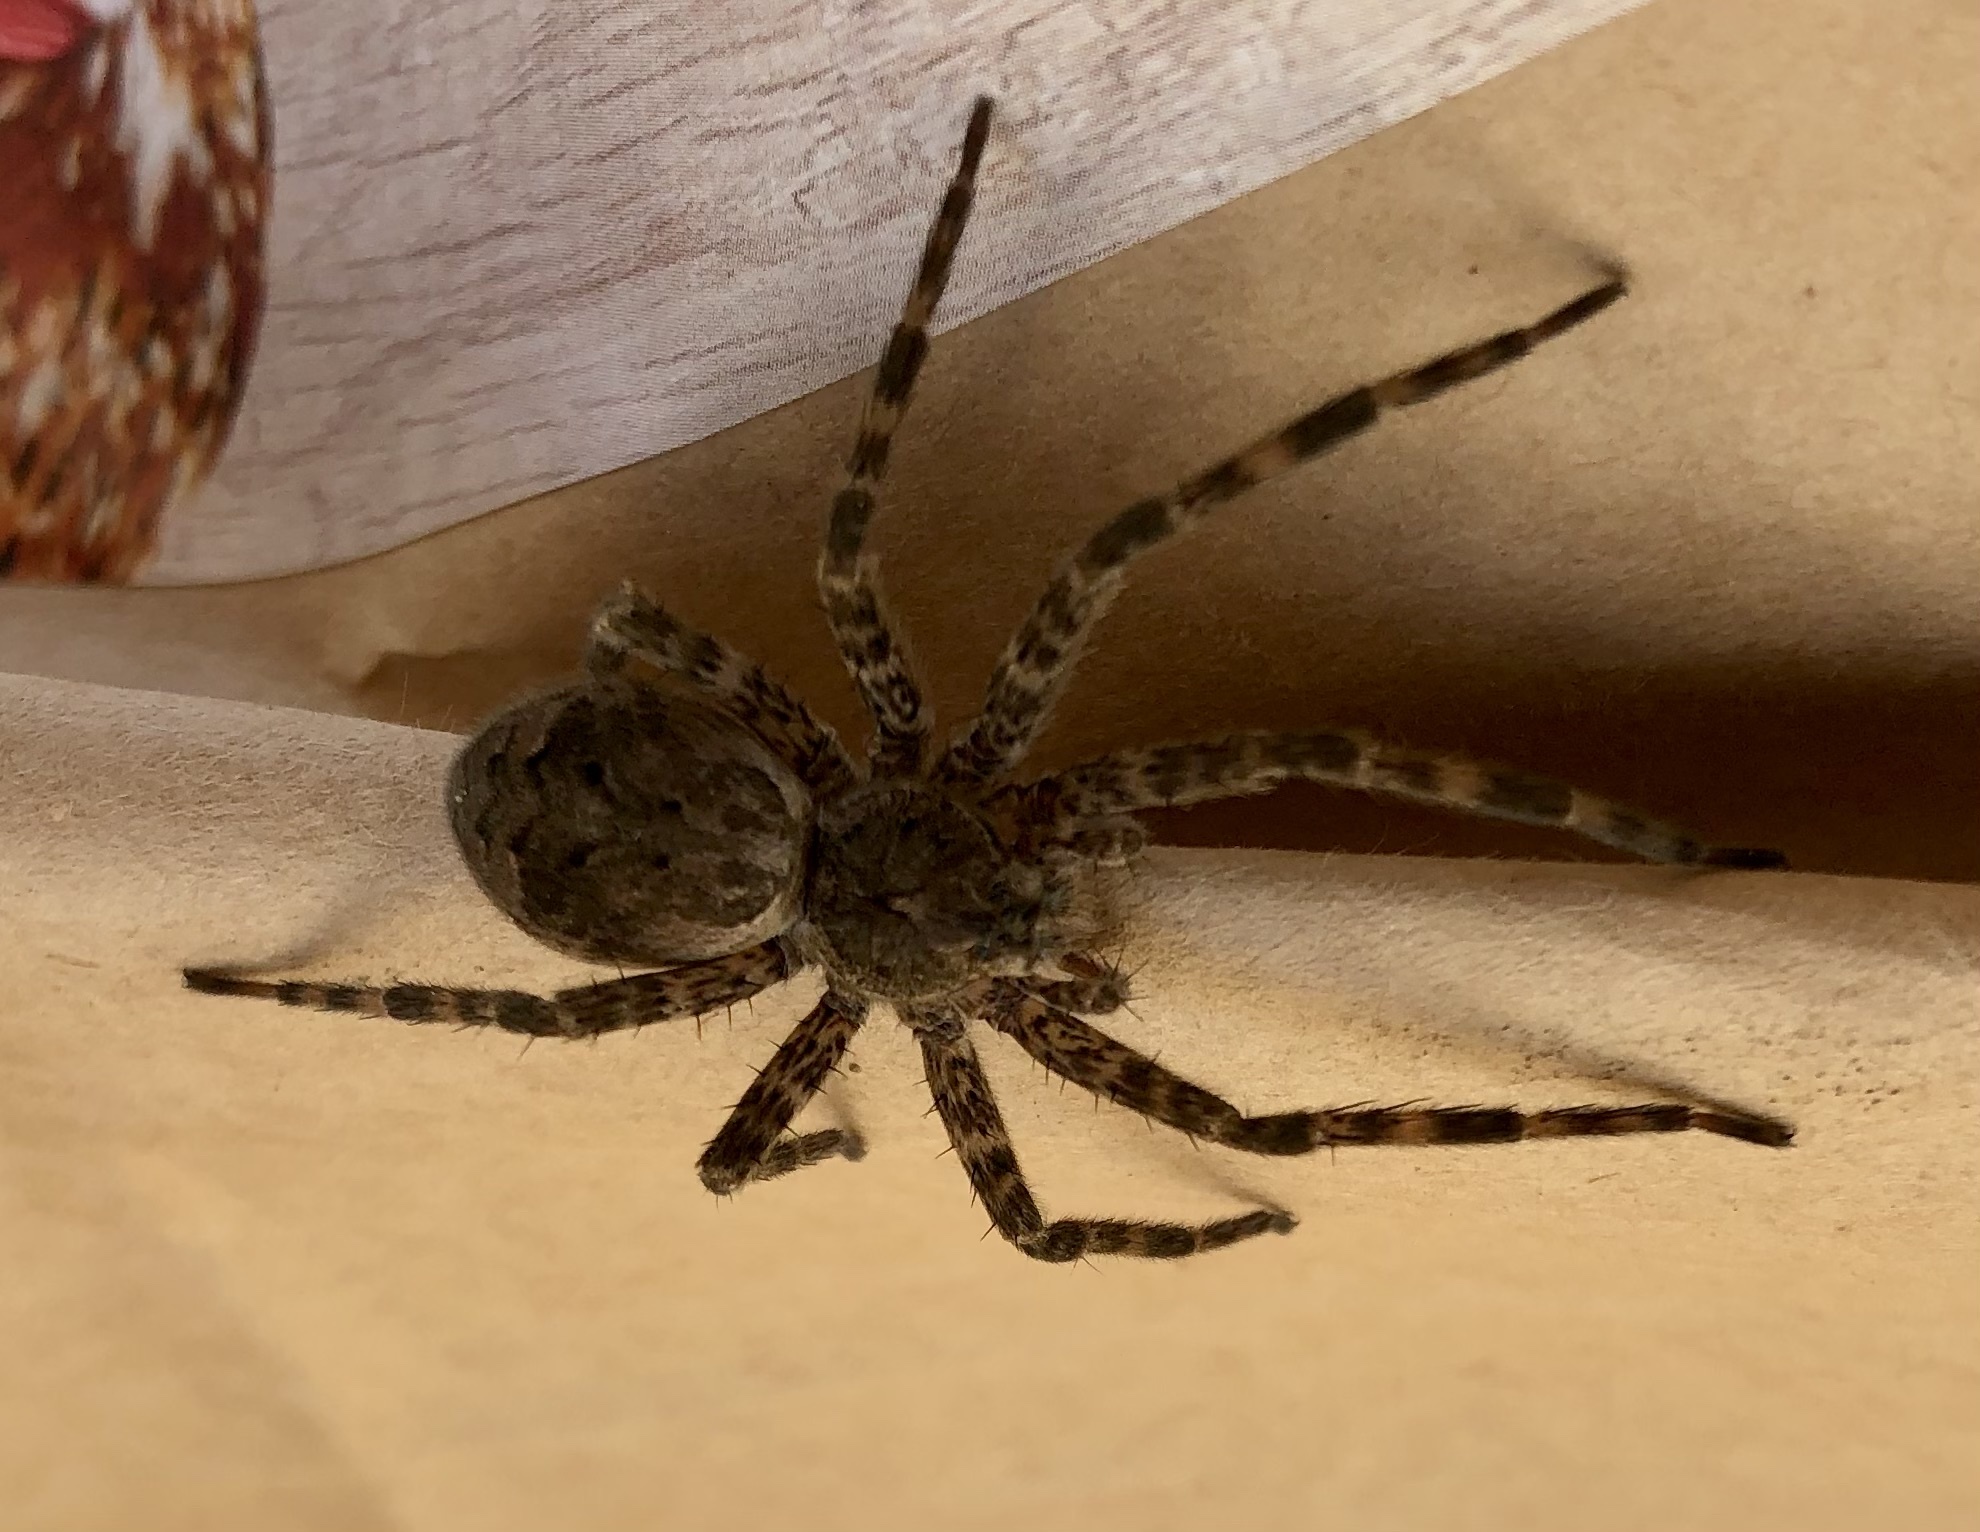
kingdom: Animalia
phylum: Arthropoda
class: Arachnida
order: Araneae
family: Pisauridae
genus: Dolomedes
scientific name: Dolomedes tenebrosus
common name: Dark fishing spider
